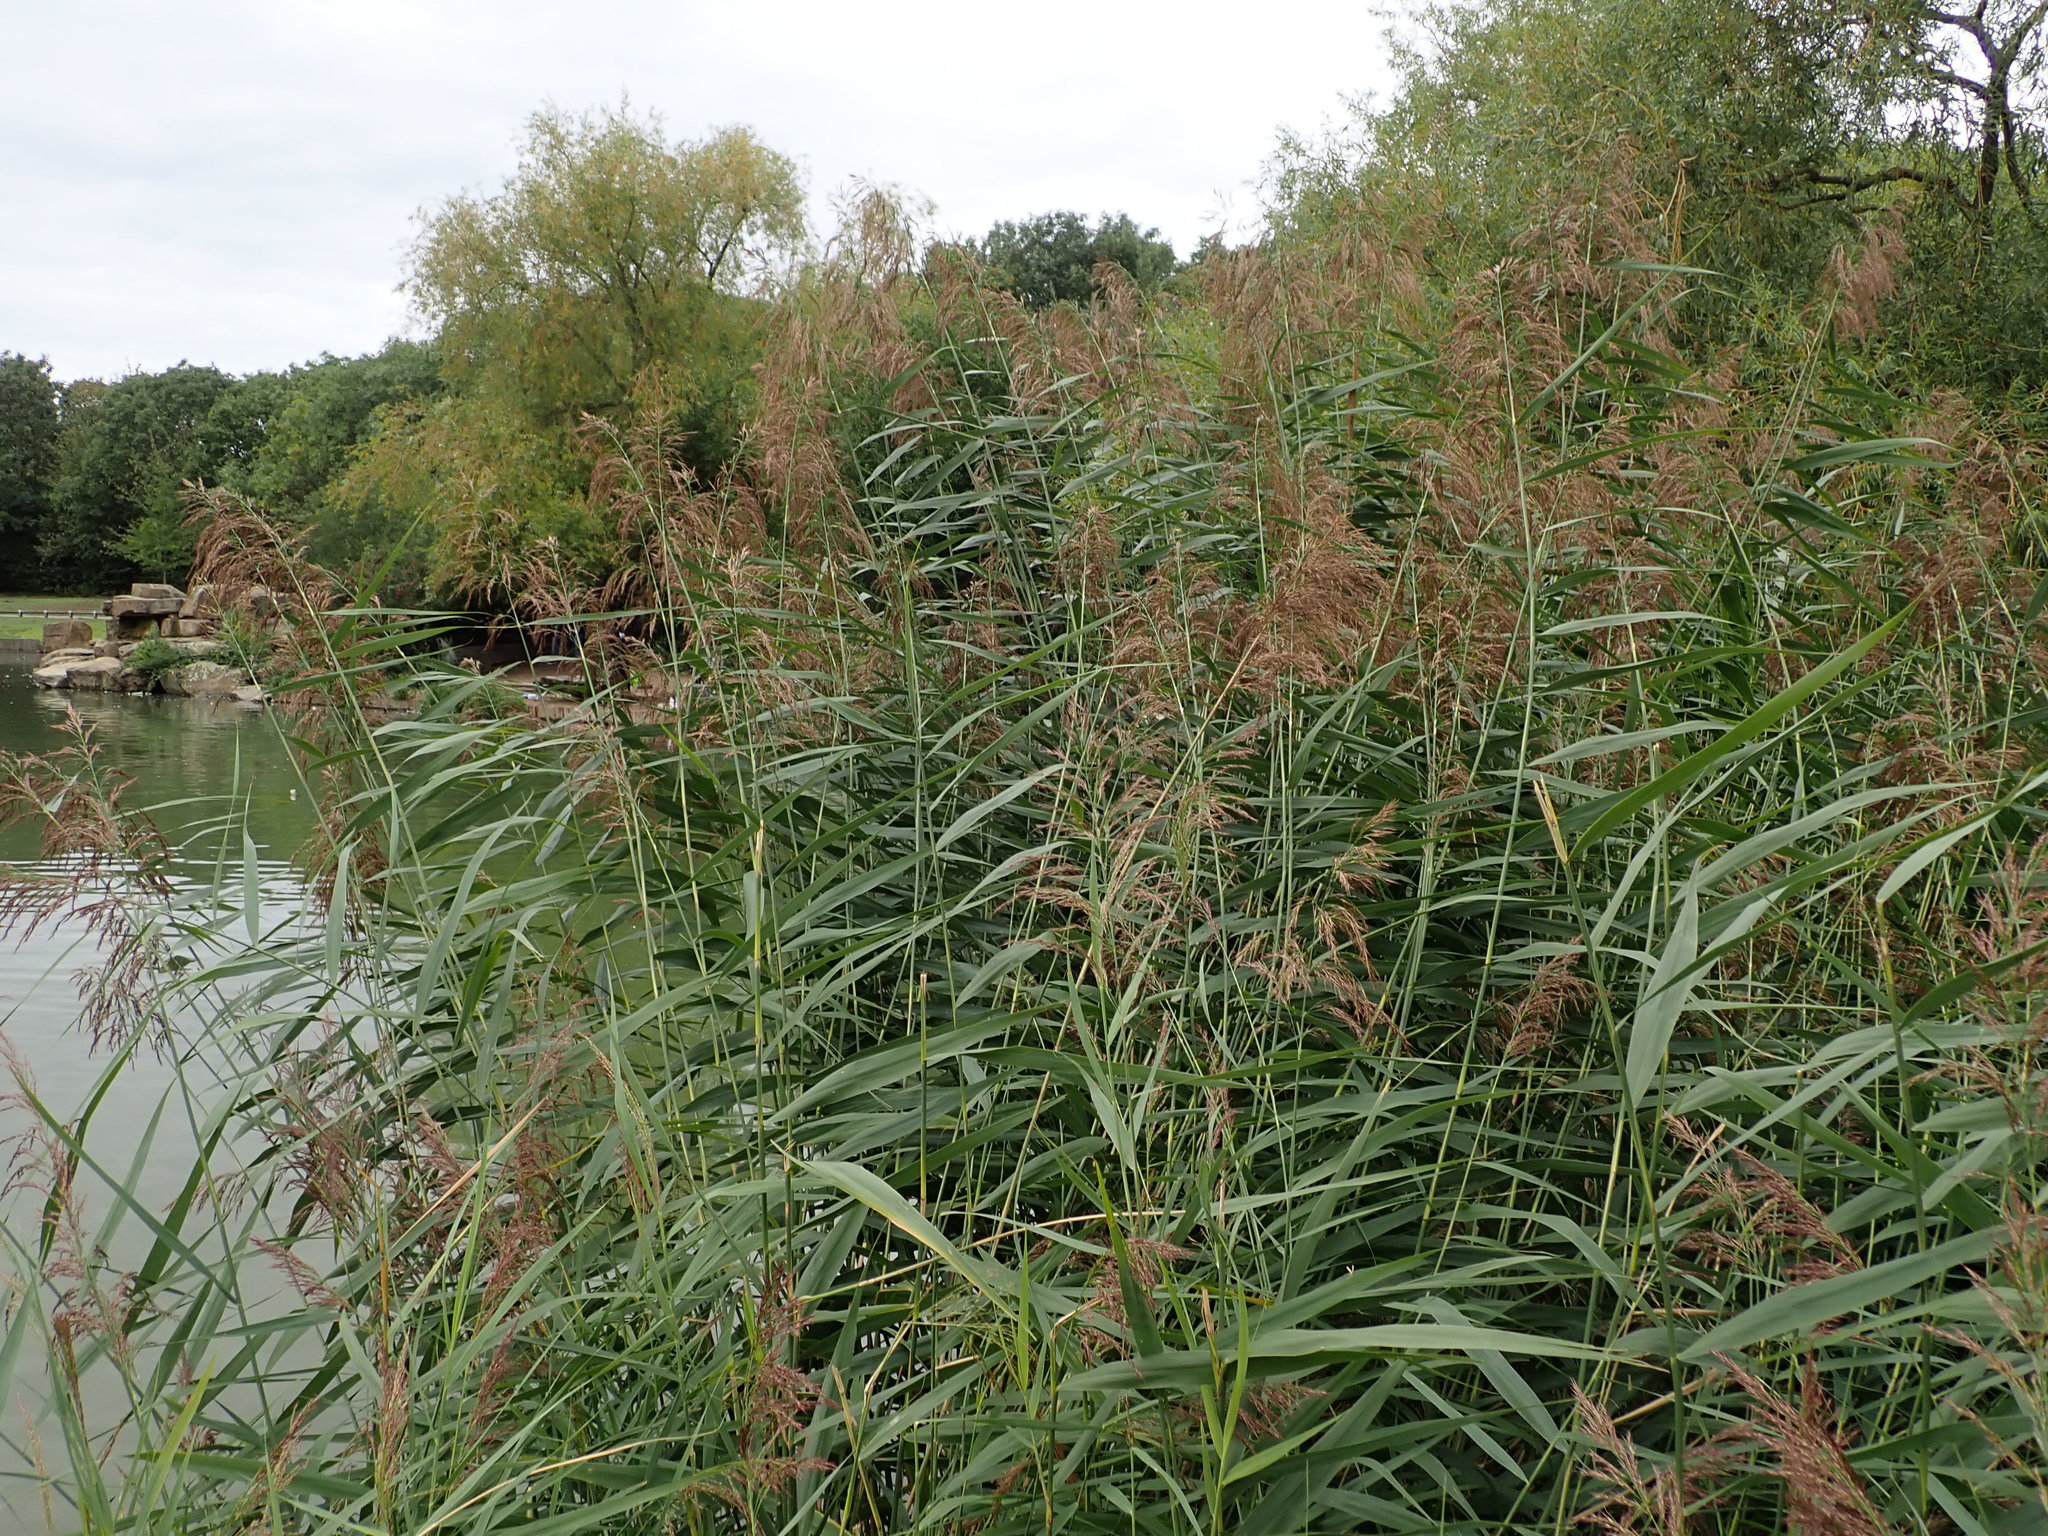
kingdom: Plantae
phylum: Tracheophyta
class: Liliopsida
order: Poales
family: Poaceae
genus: Phragmites
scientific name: Phragmites australis
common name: Common reed
